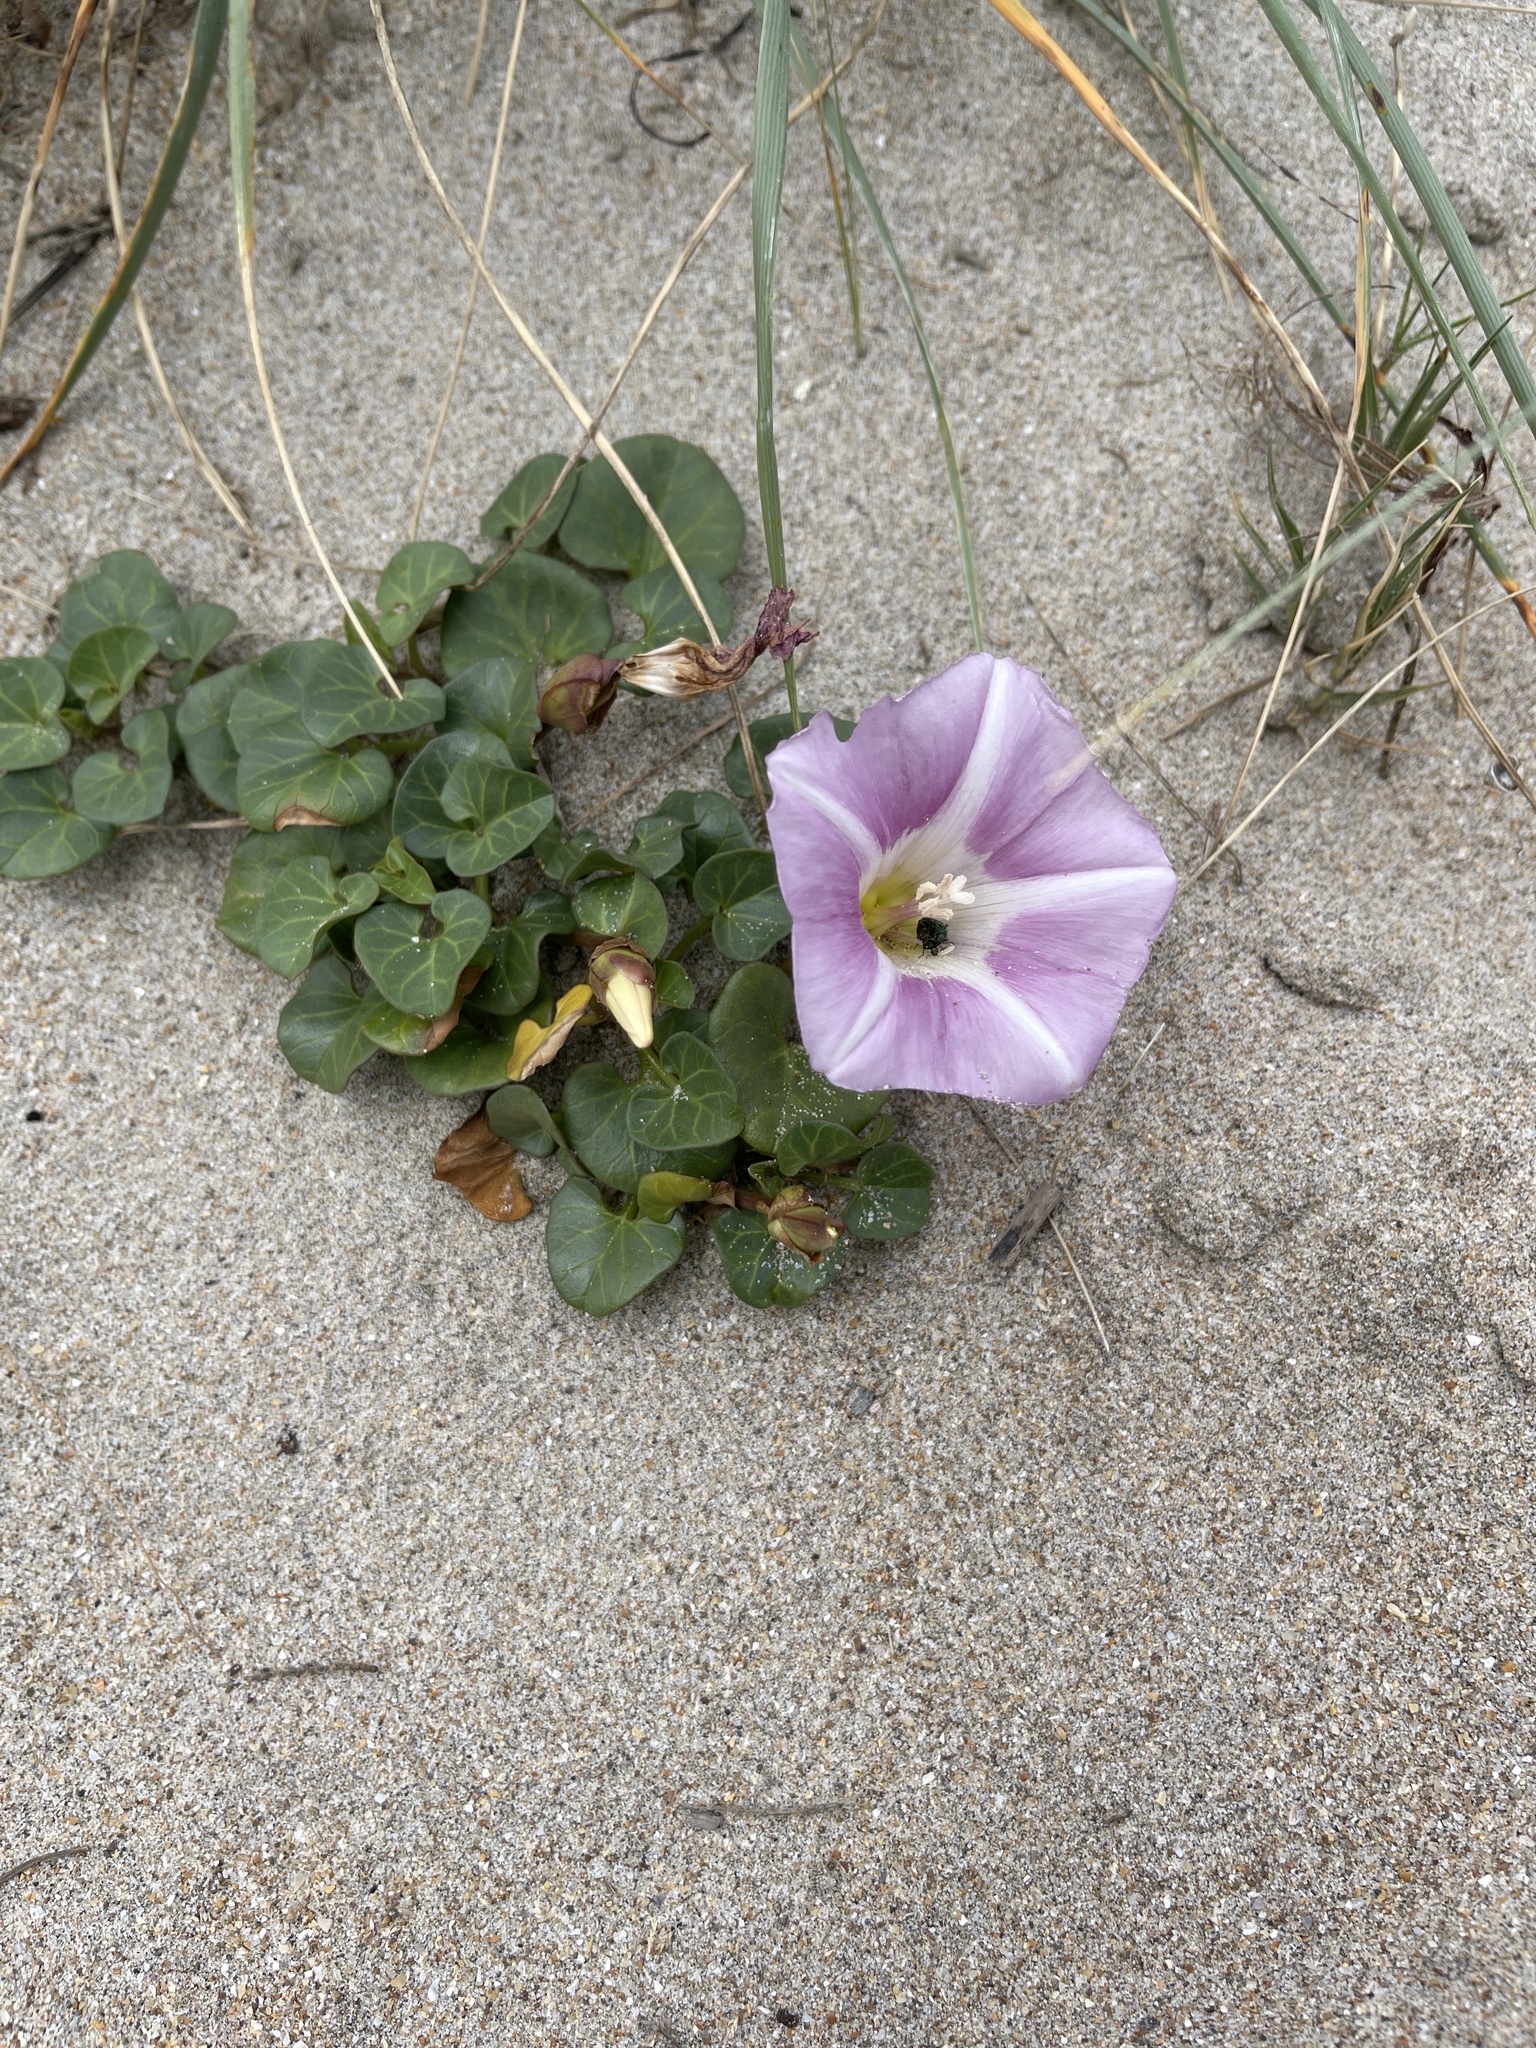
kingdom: Plantae
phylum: Tracheophyta
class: Magnoliopsida
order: Solanales
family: Convolvulaceae
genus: Calystegia
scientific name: Calystegia soldanella
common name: Sea bindweed
